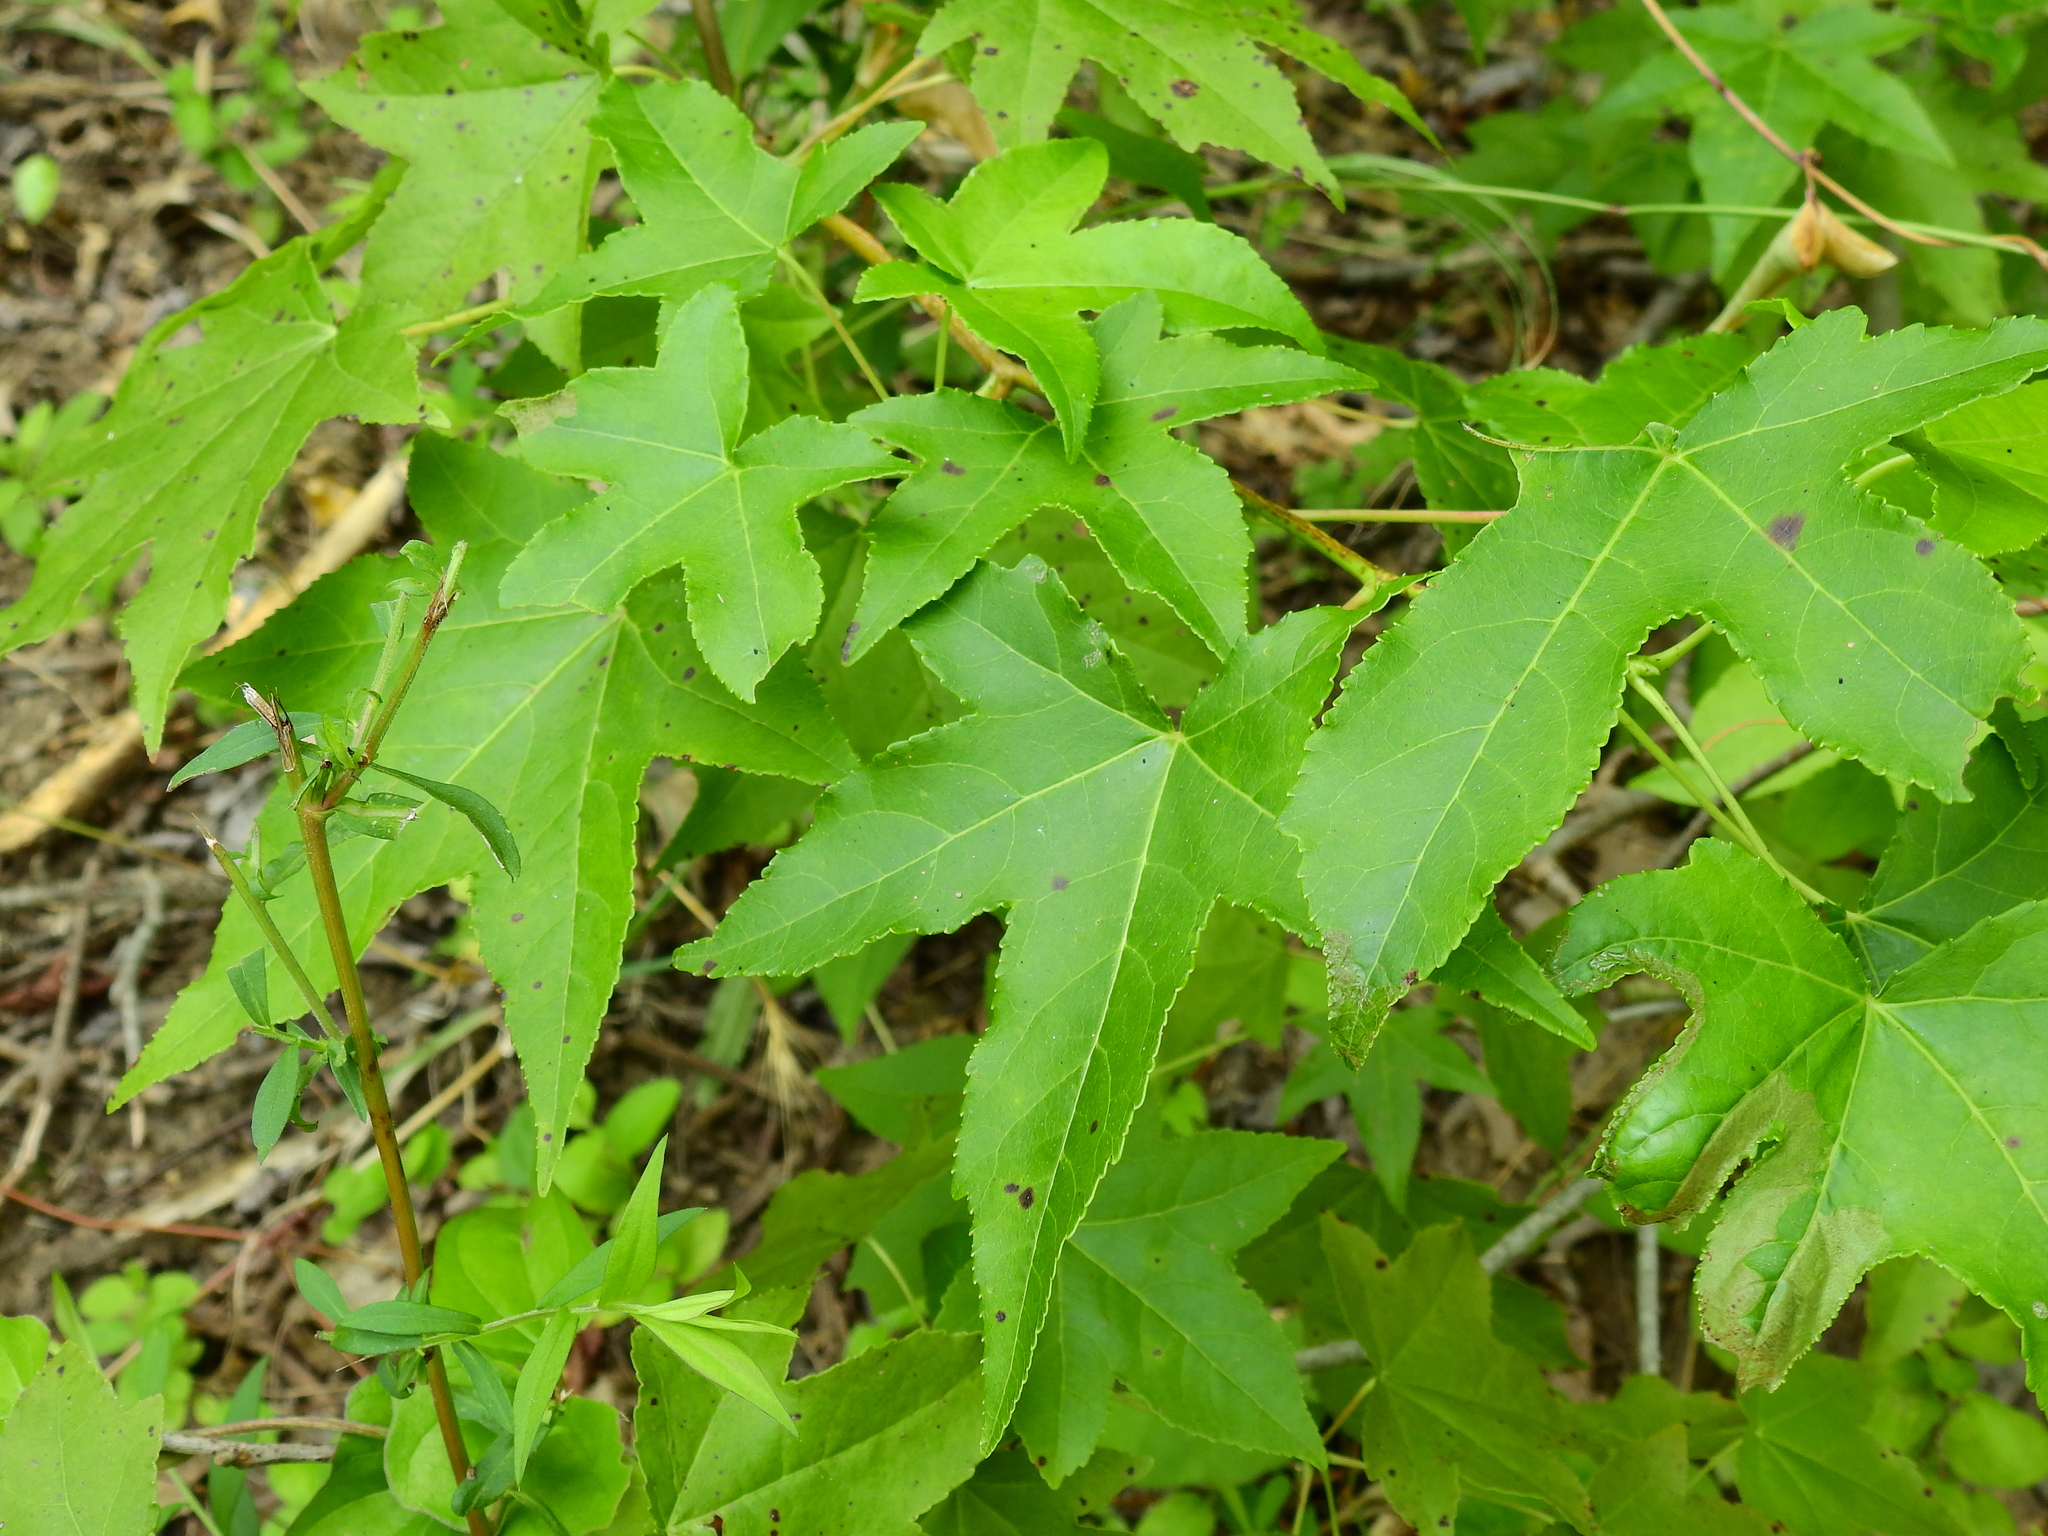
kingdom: Plantae
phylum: Tracheophyta
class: Magnoliopsida
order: Saxifragales
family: Altingiaceae
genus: Liquidambar
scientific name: Liquidambar styraciflua
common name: Sweet gum
